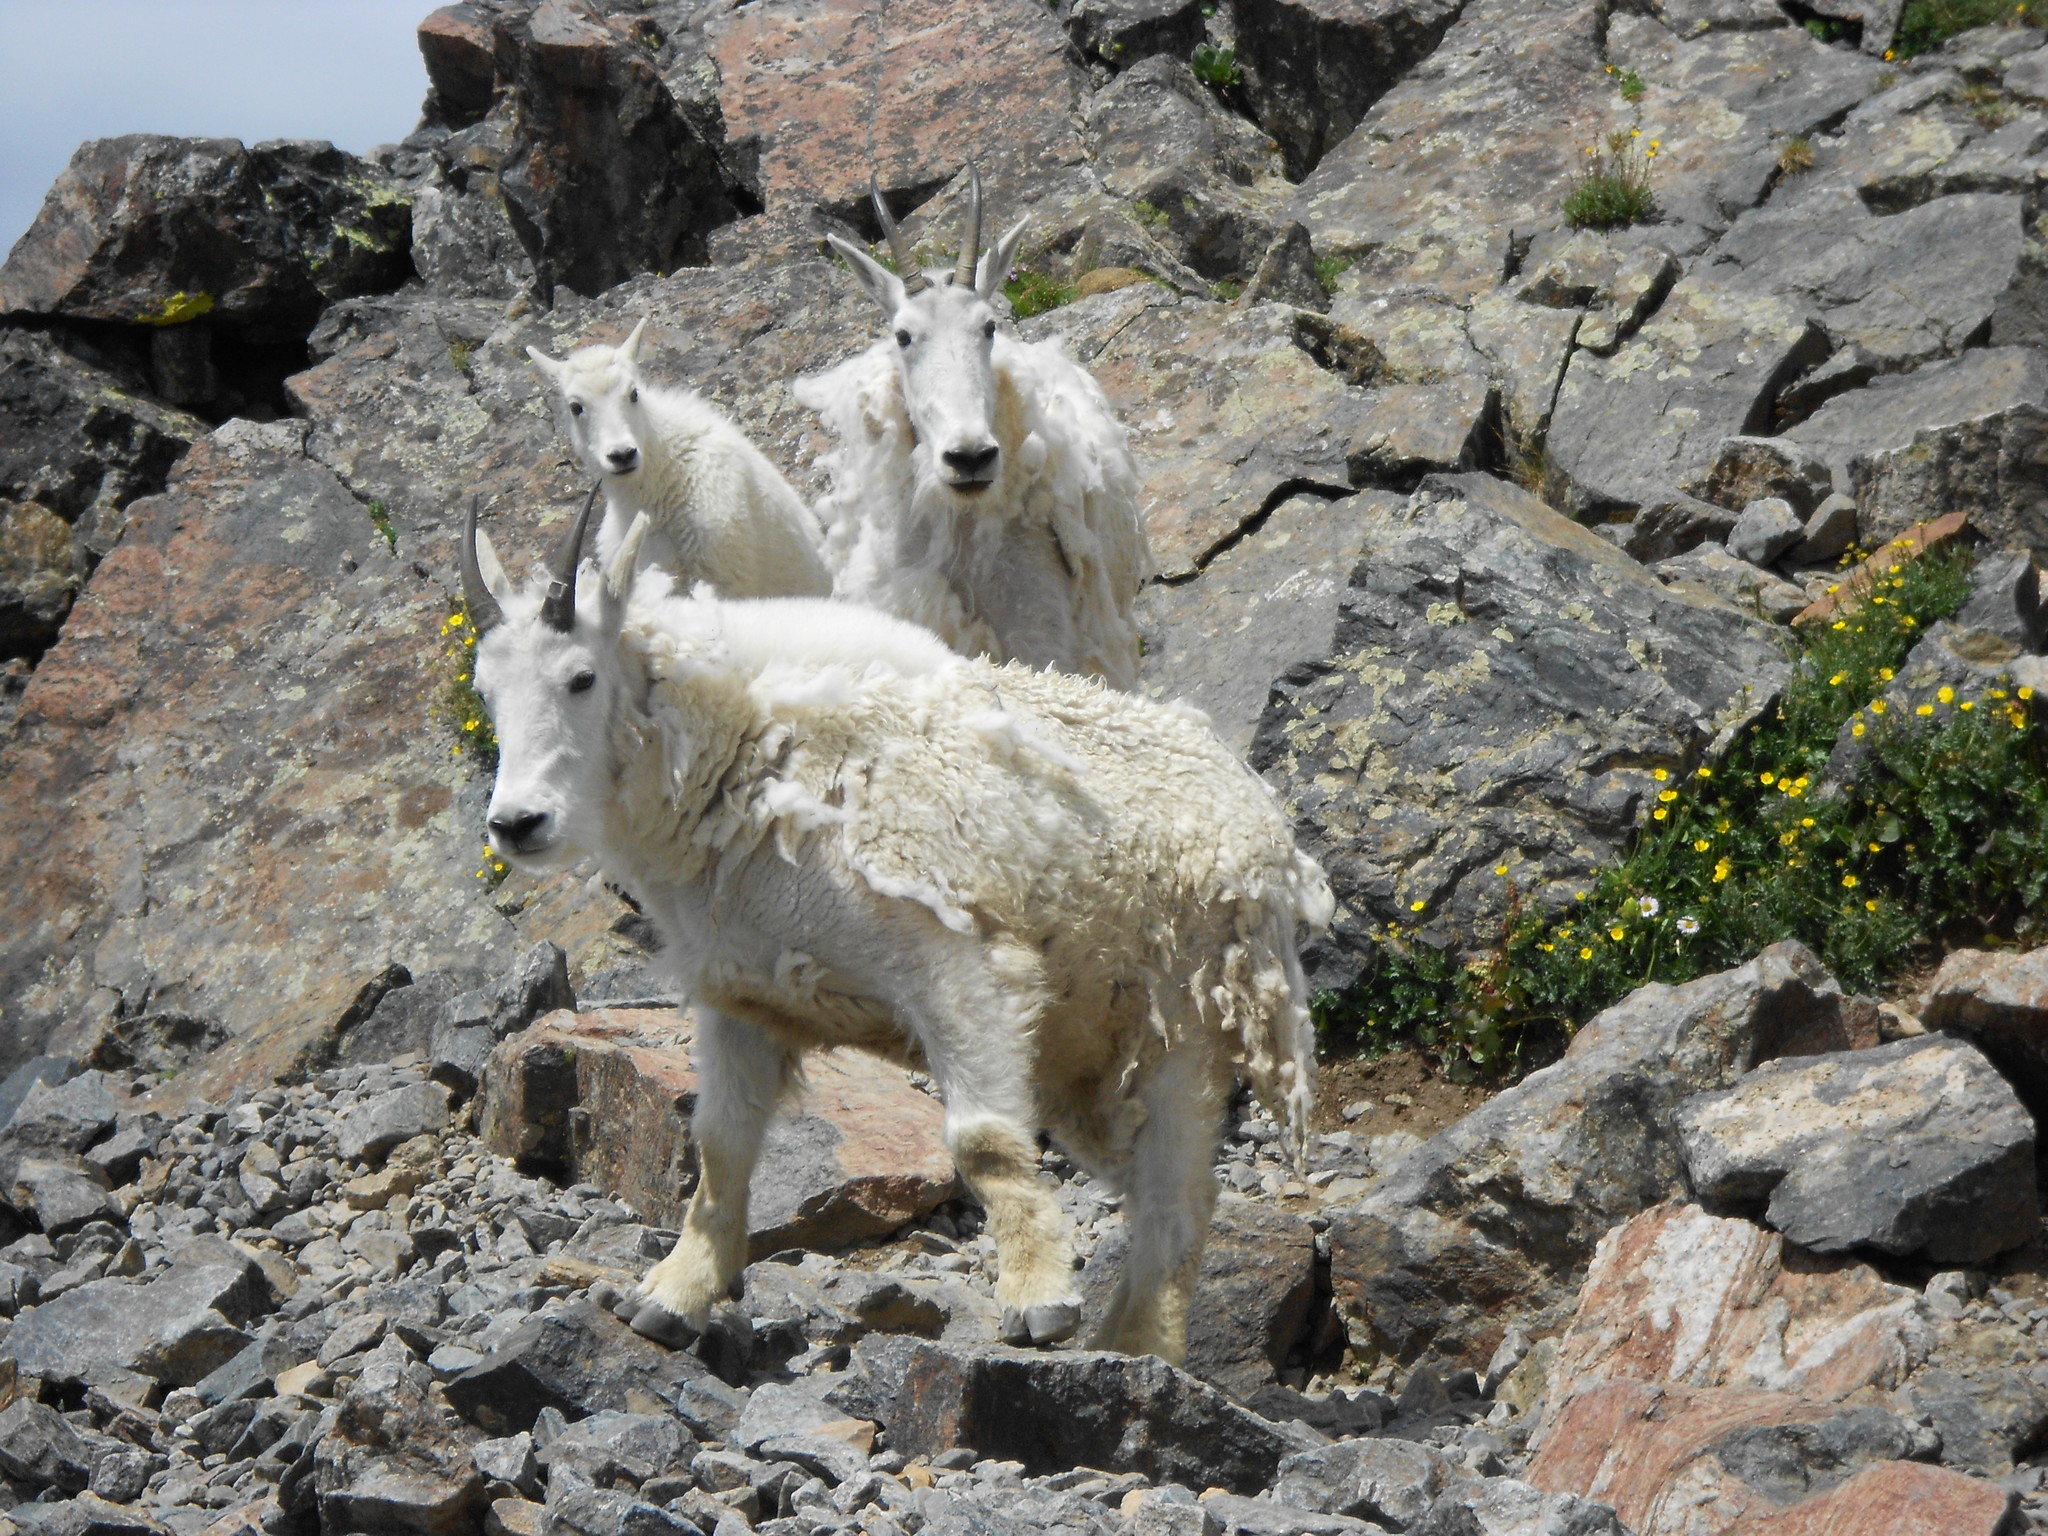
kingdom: Animalia
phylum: Chordata
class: Mammalia
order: Artiodactyla
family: Bovidae
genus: Oreamnos
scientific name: Oreamnos americanus
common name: Mountain goat
